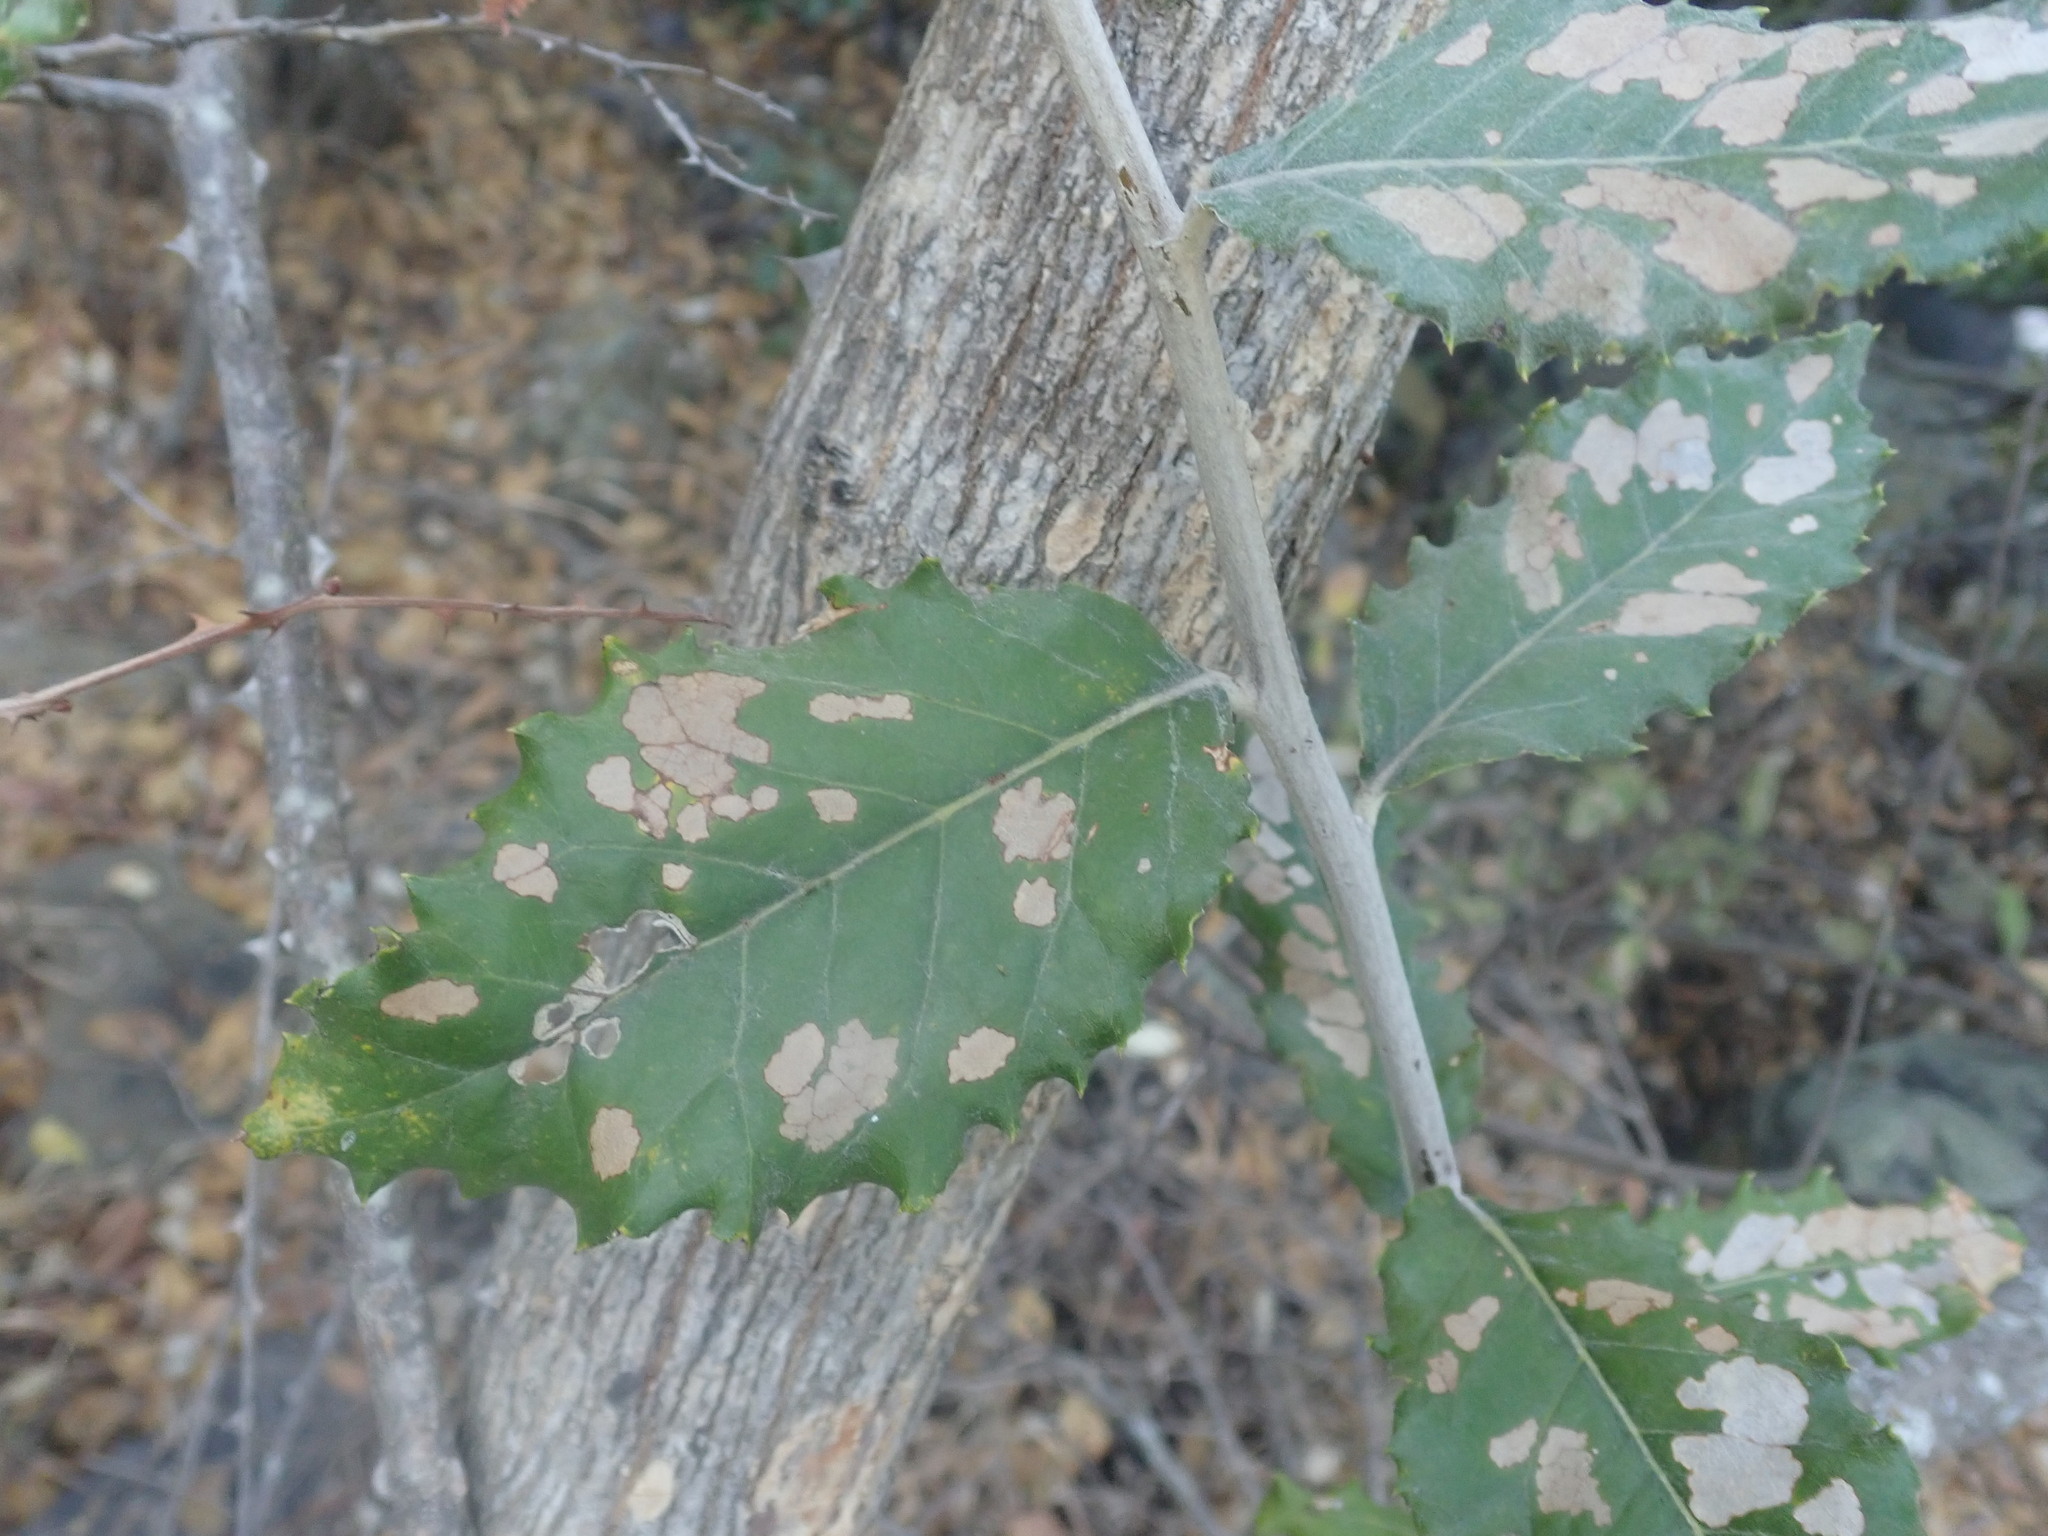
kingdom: Plantae
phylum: Tracheophyta
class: Magnoliopsida
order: Asterales
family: Asteraceae
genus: Brachylaena
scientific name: Brachylaena discolor
